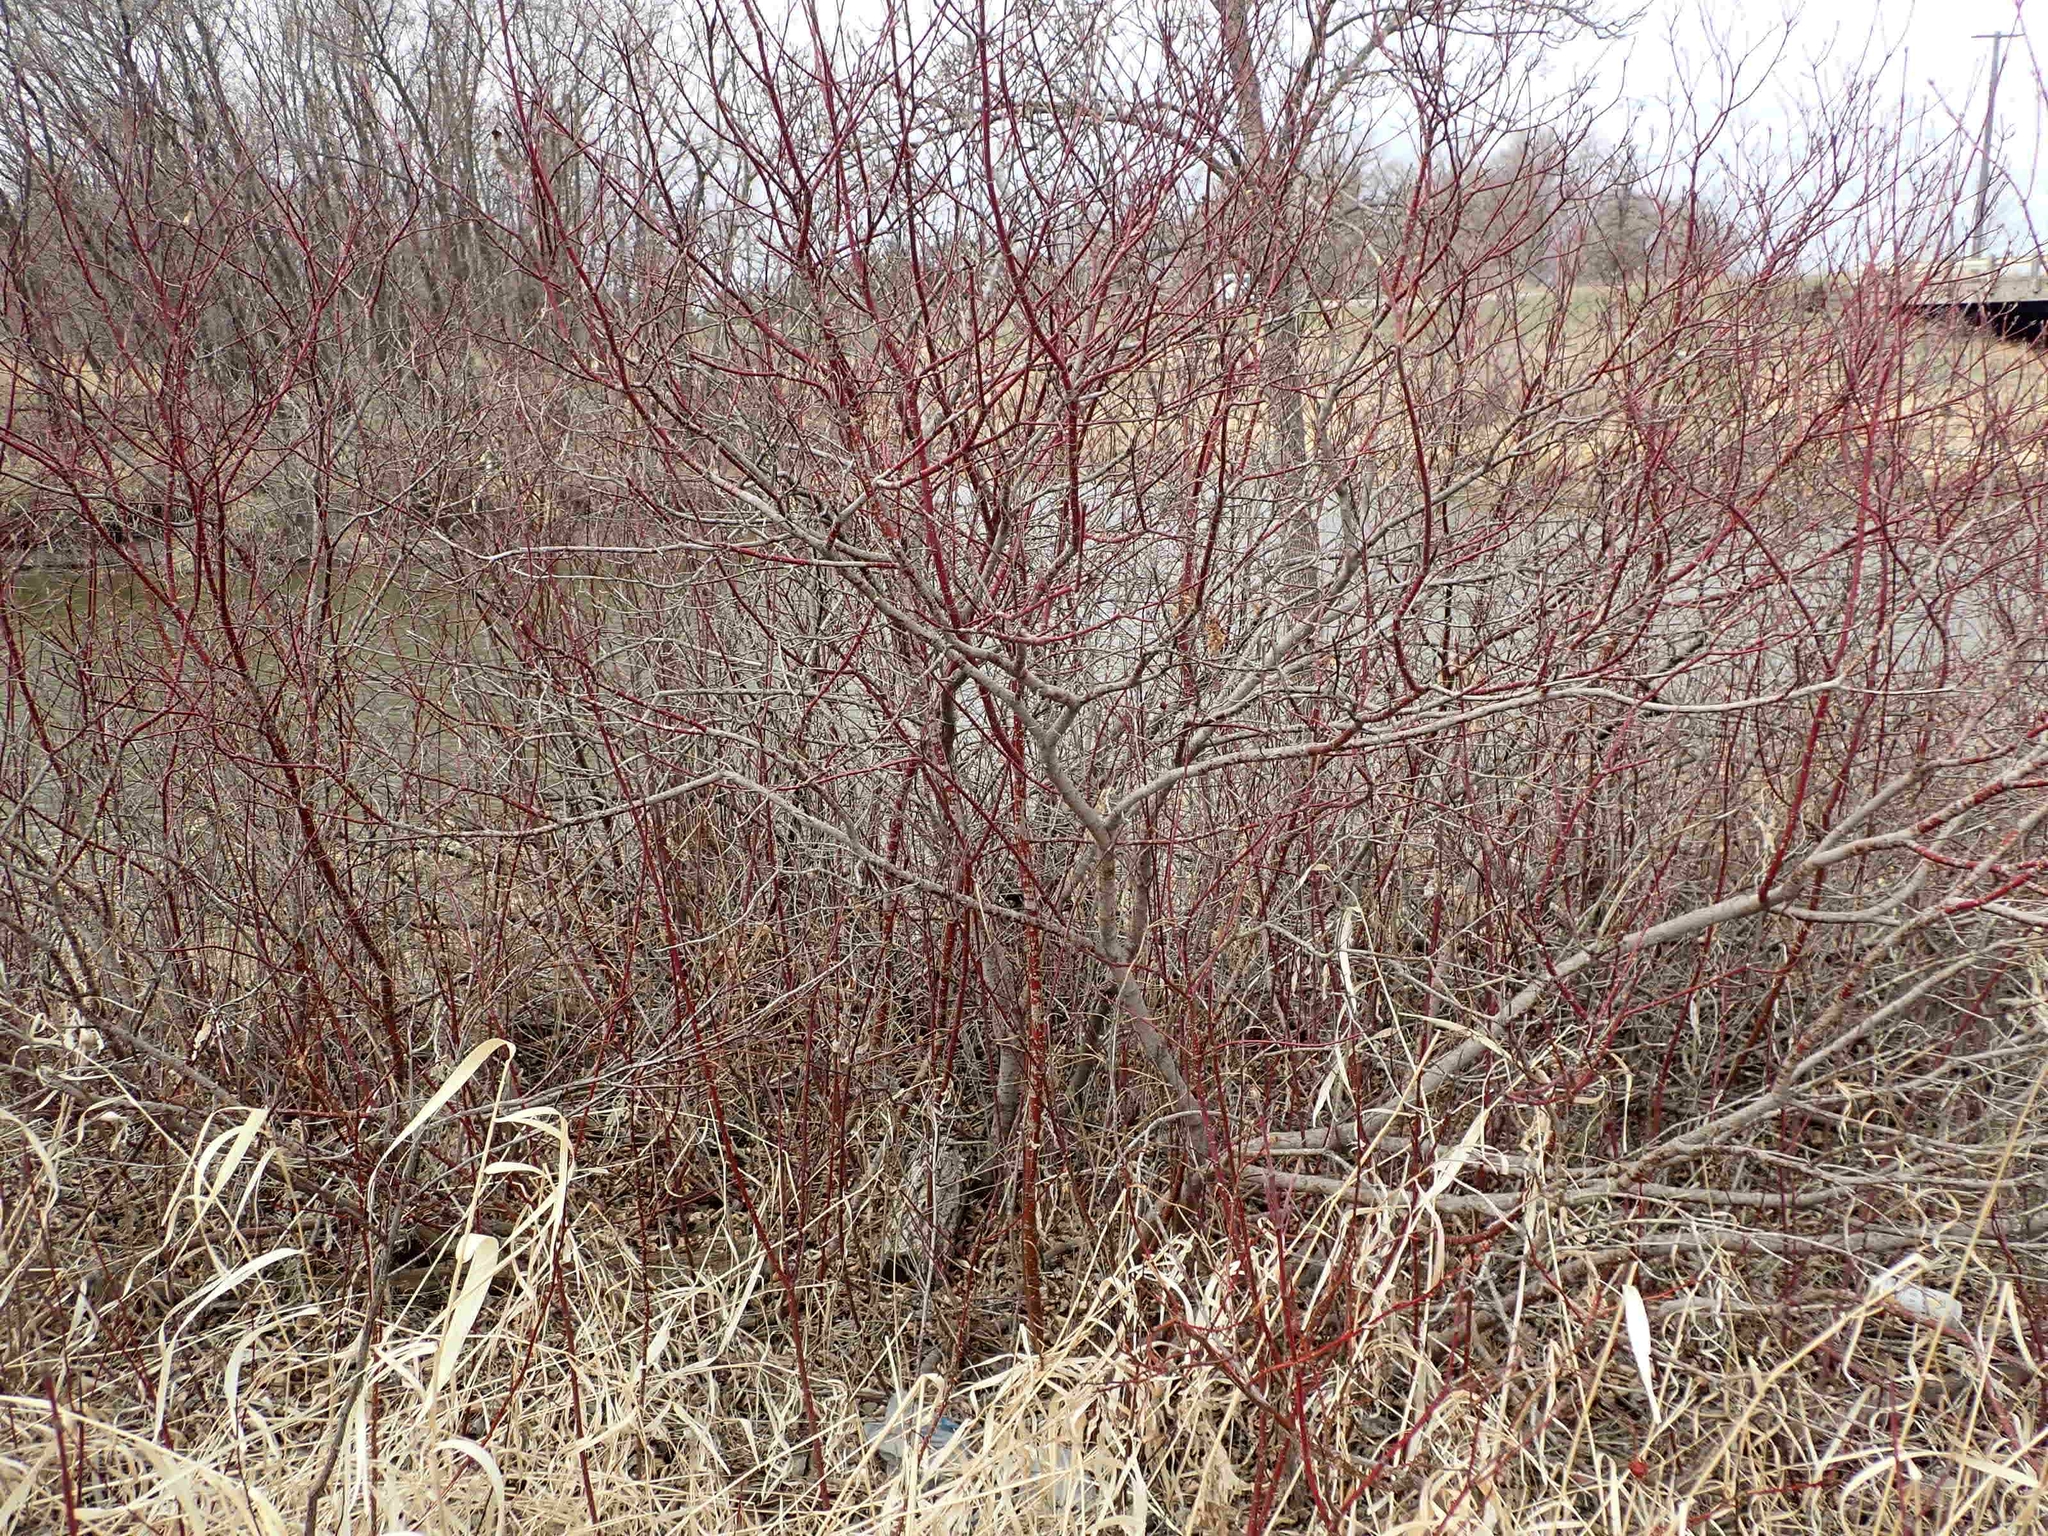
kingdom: Plantae
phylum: Tracheophyta
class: Magnoliopsida
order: Cornales
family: Cornaceae
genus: Cornus
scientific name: Cornus sericea
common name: Red-osier dogwood
